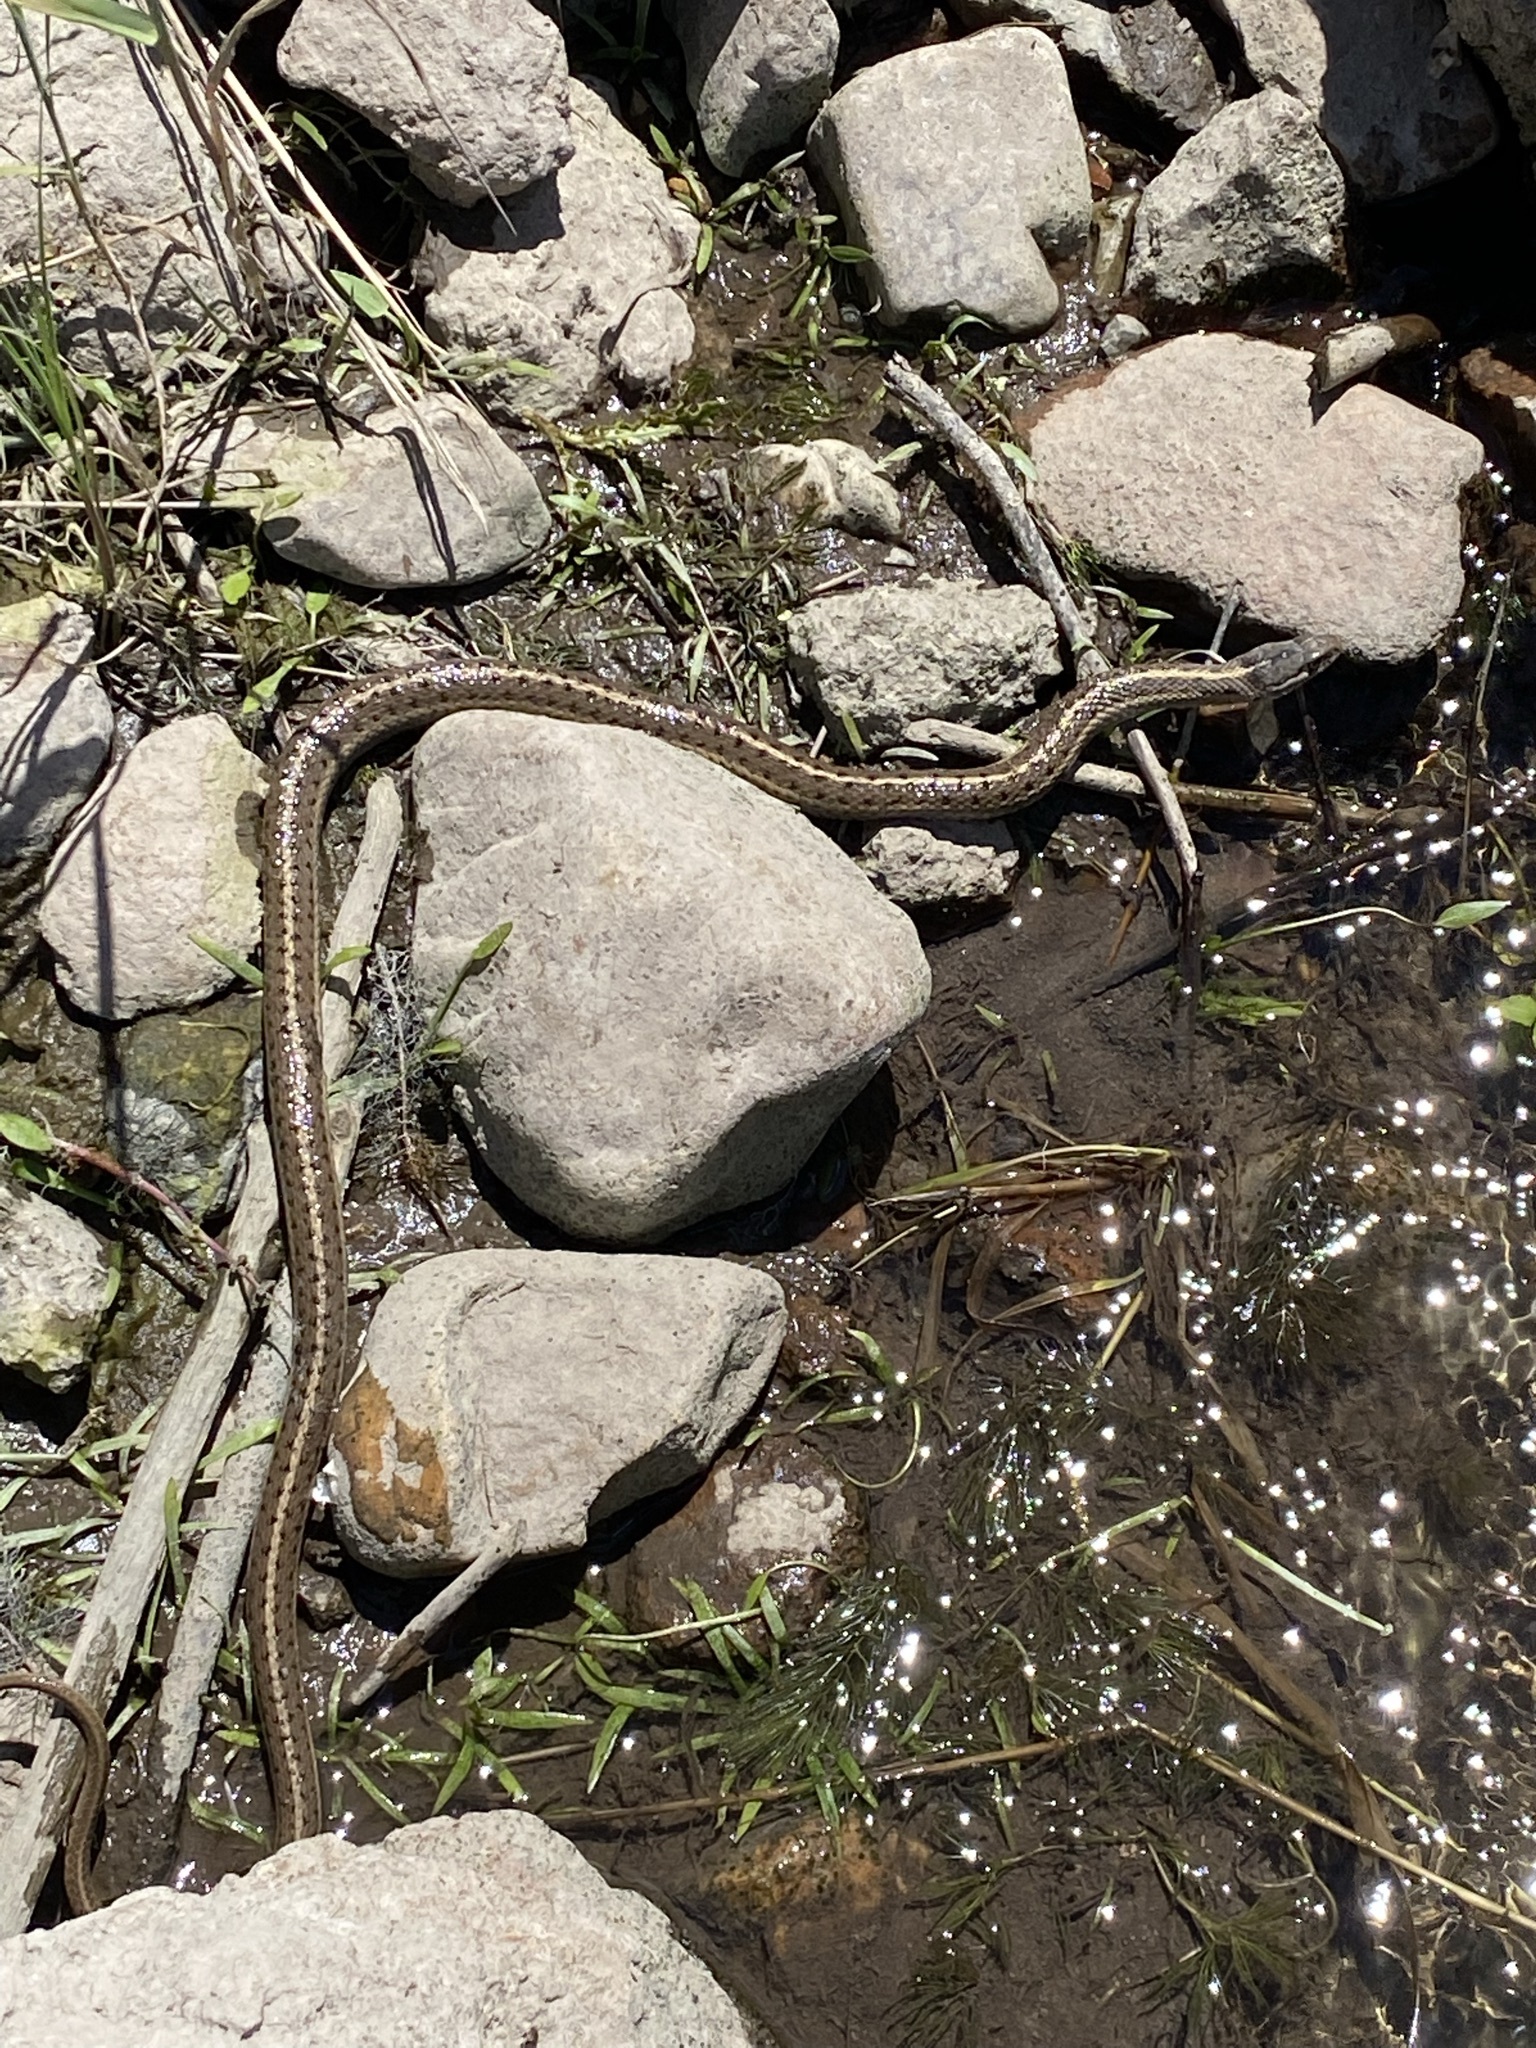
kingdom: Animalia
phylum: Chordata
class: Squamata
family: Colubridae
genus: Thamnophis
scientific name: Thamnophis elegans
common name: Western terrestrial garter snake
